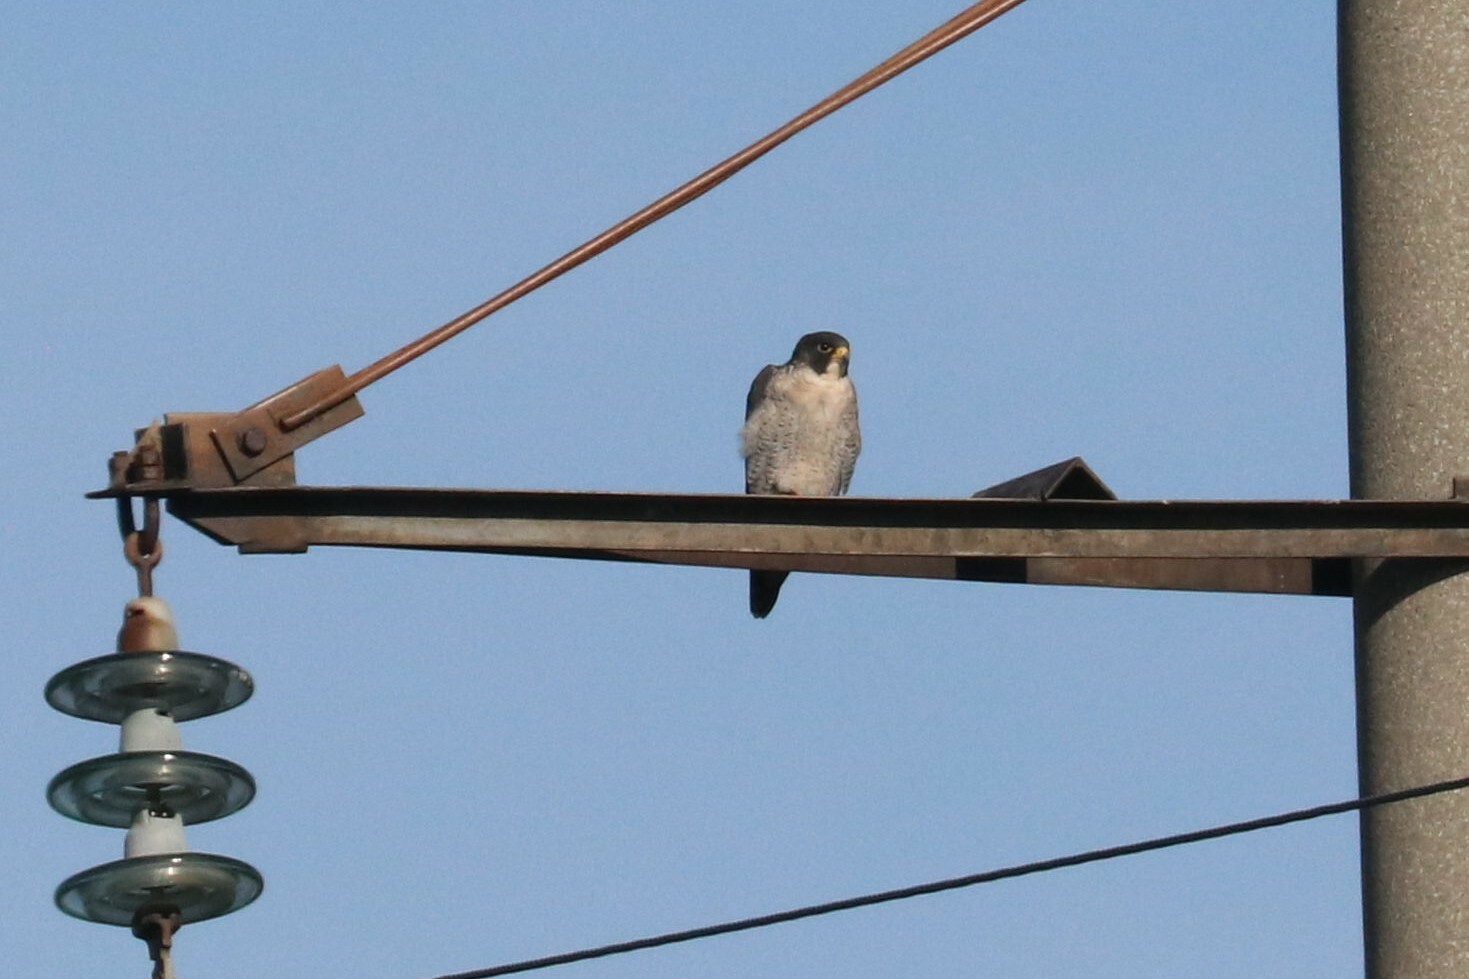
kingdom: Animalia
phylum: Chordata
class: Aves
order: Falconiformes
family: Falconidae
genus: Falco
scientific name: Falco peregrinus
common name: Peregrine falcon
